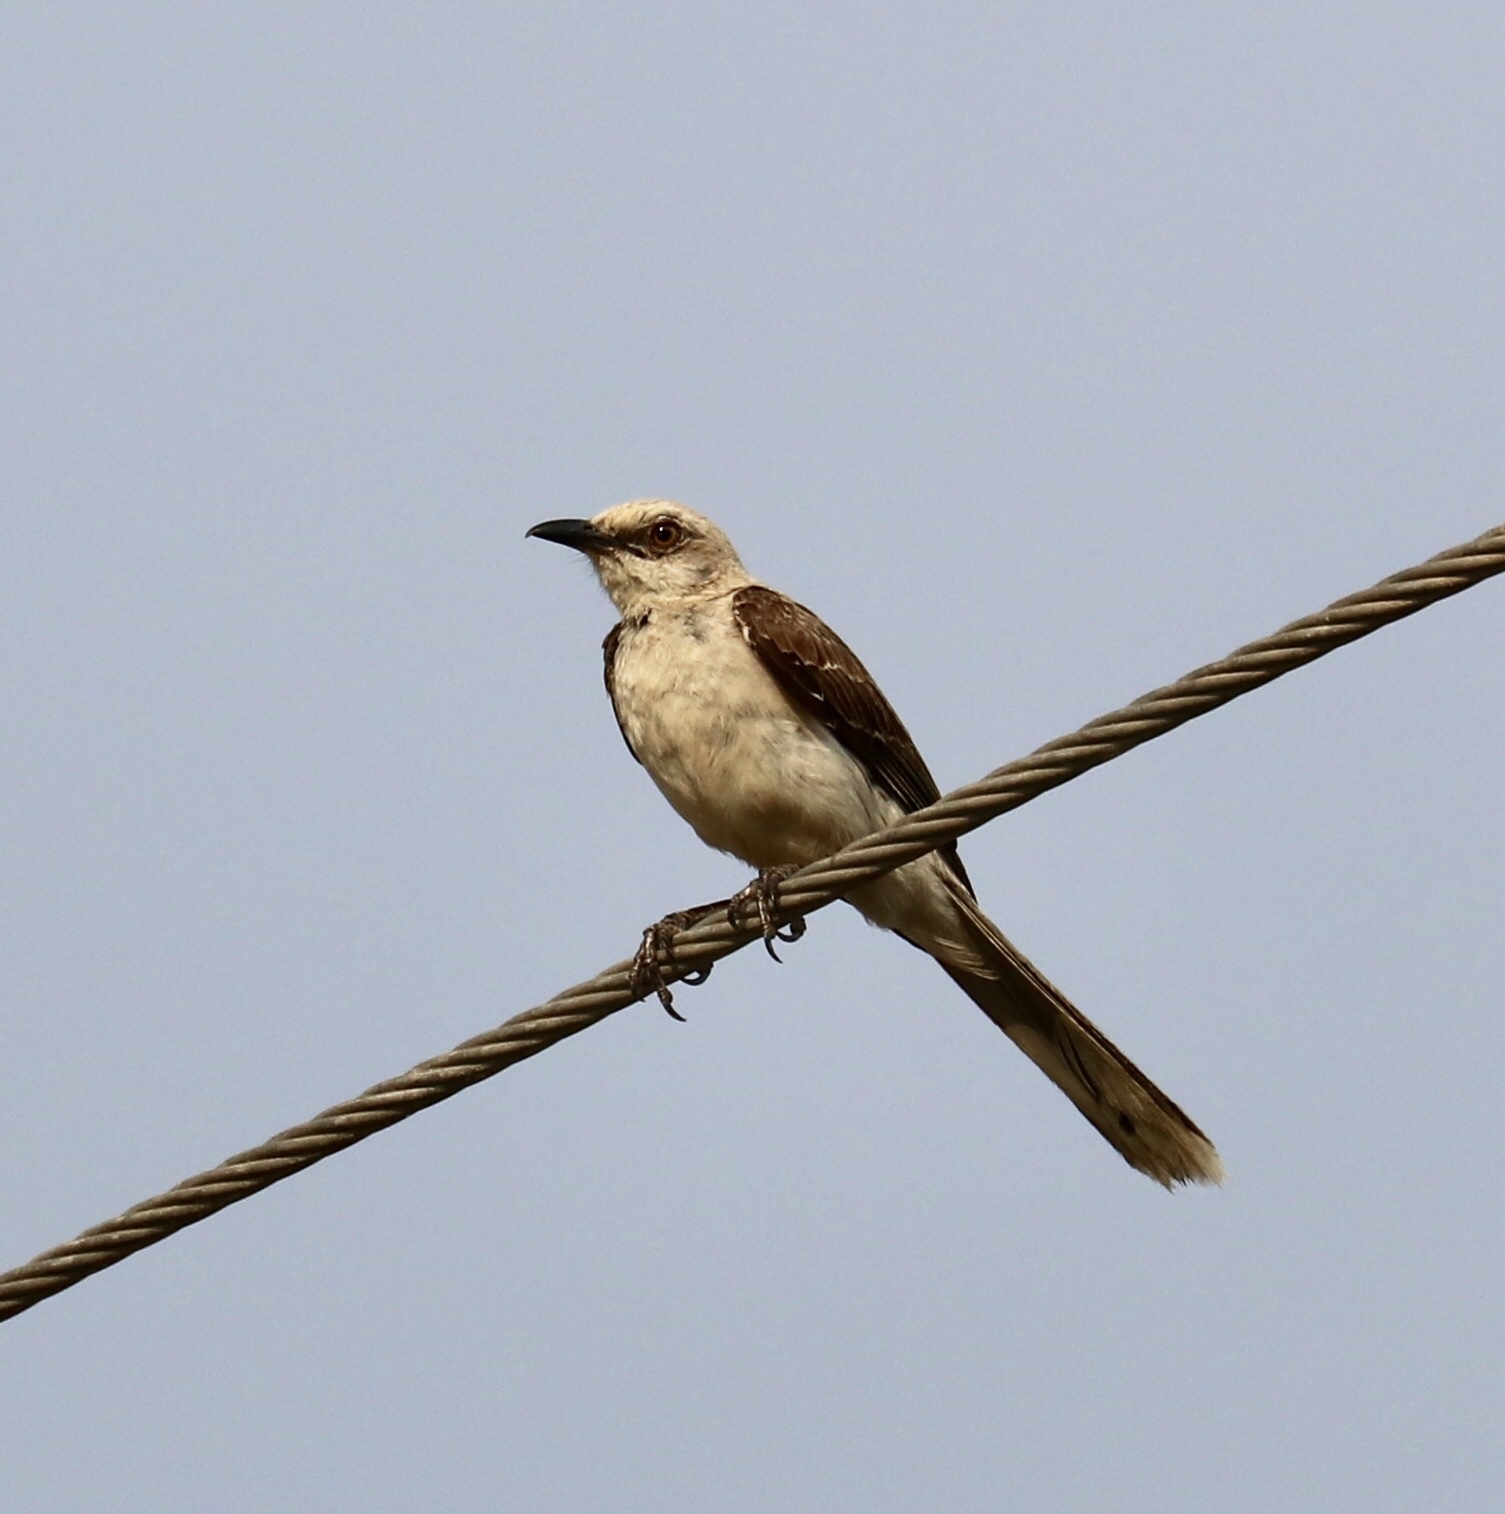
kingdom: Animalia
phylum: Chordata
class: Aves
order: Passeriformes
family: Mimidae
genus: Mimus
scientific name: Mimus gilvus
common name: Tropical mockingbird
